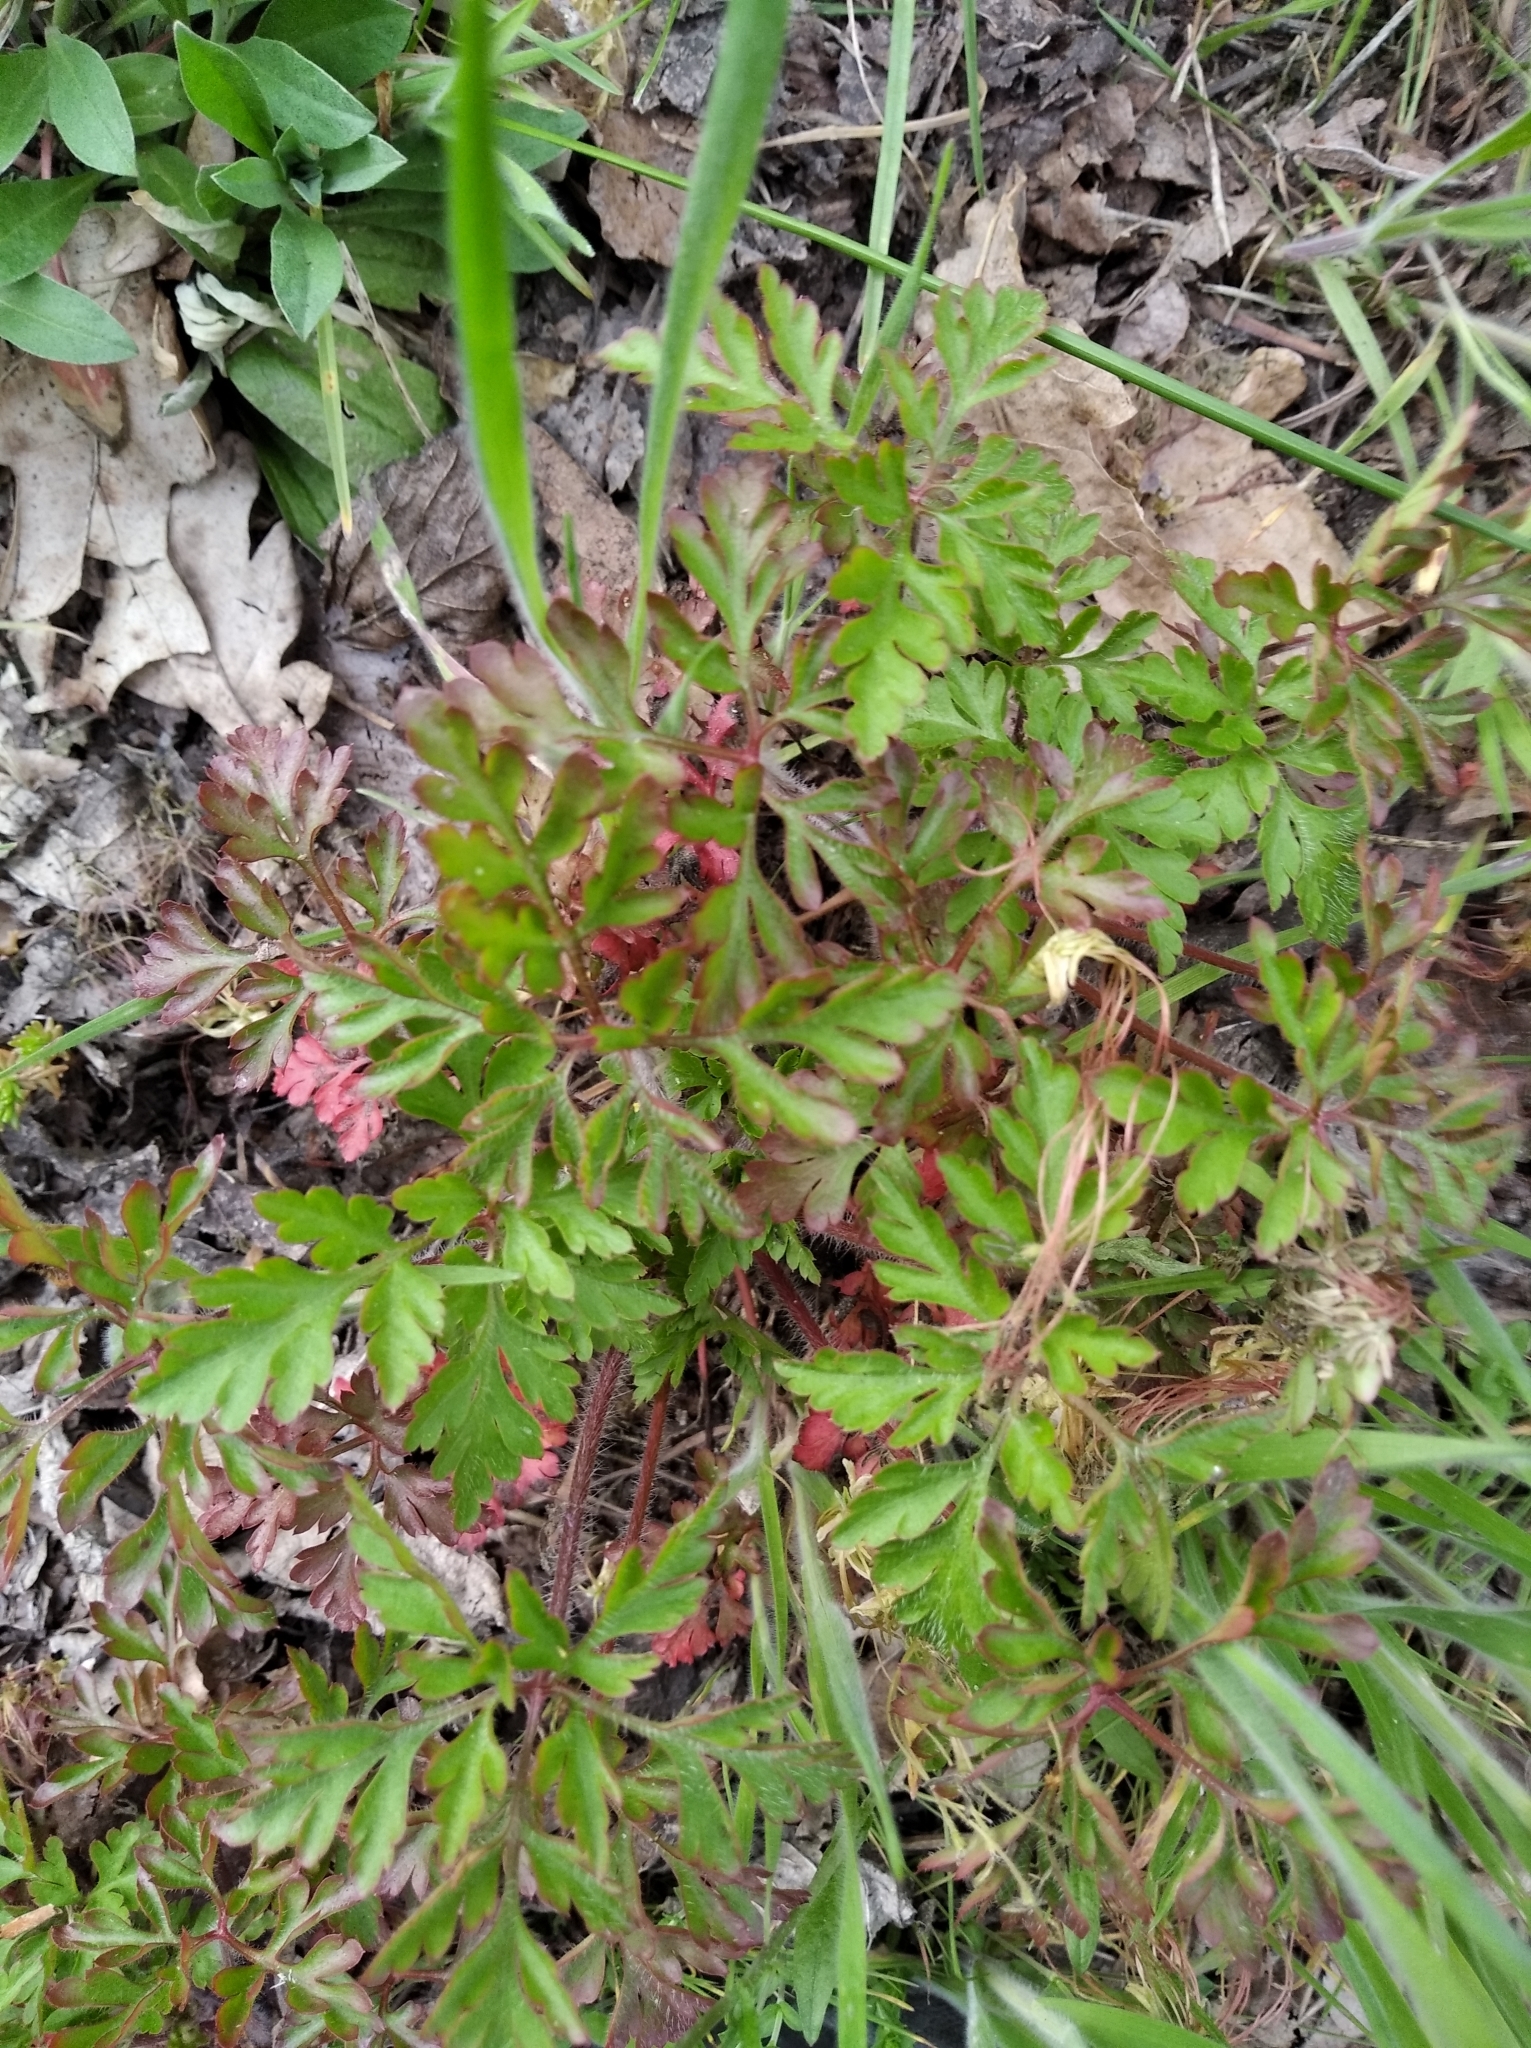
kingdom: Plantae
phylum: Tracheophyta
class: Magnoliopsida
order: Geraniales
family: Geraniaceae
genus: Geranium
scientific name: Geranium robertianum
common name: Herb-robert
